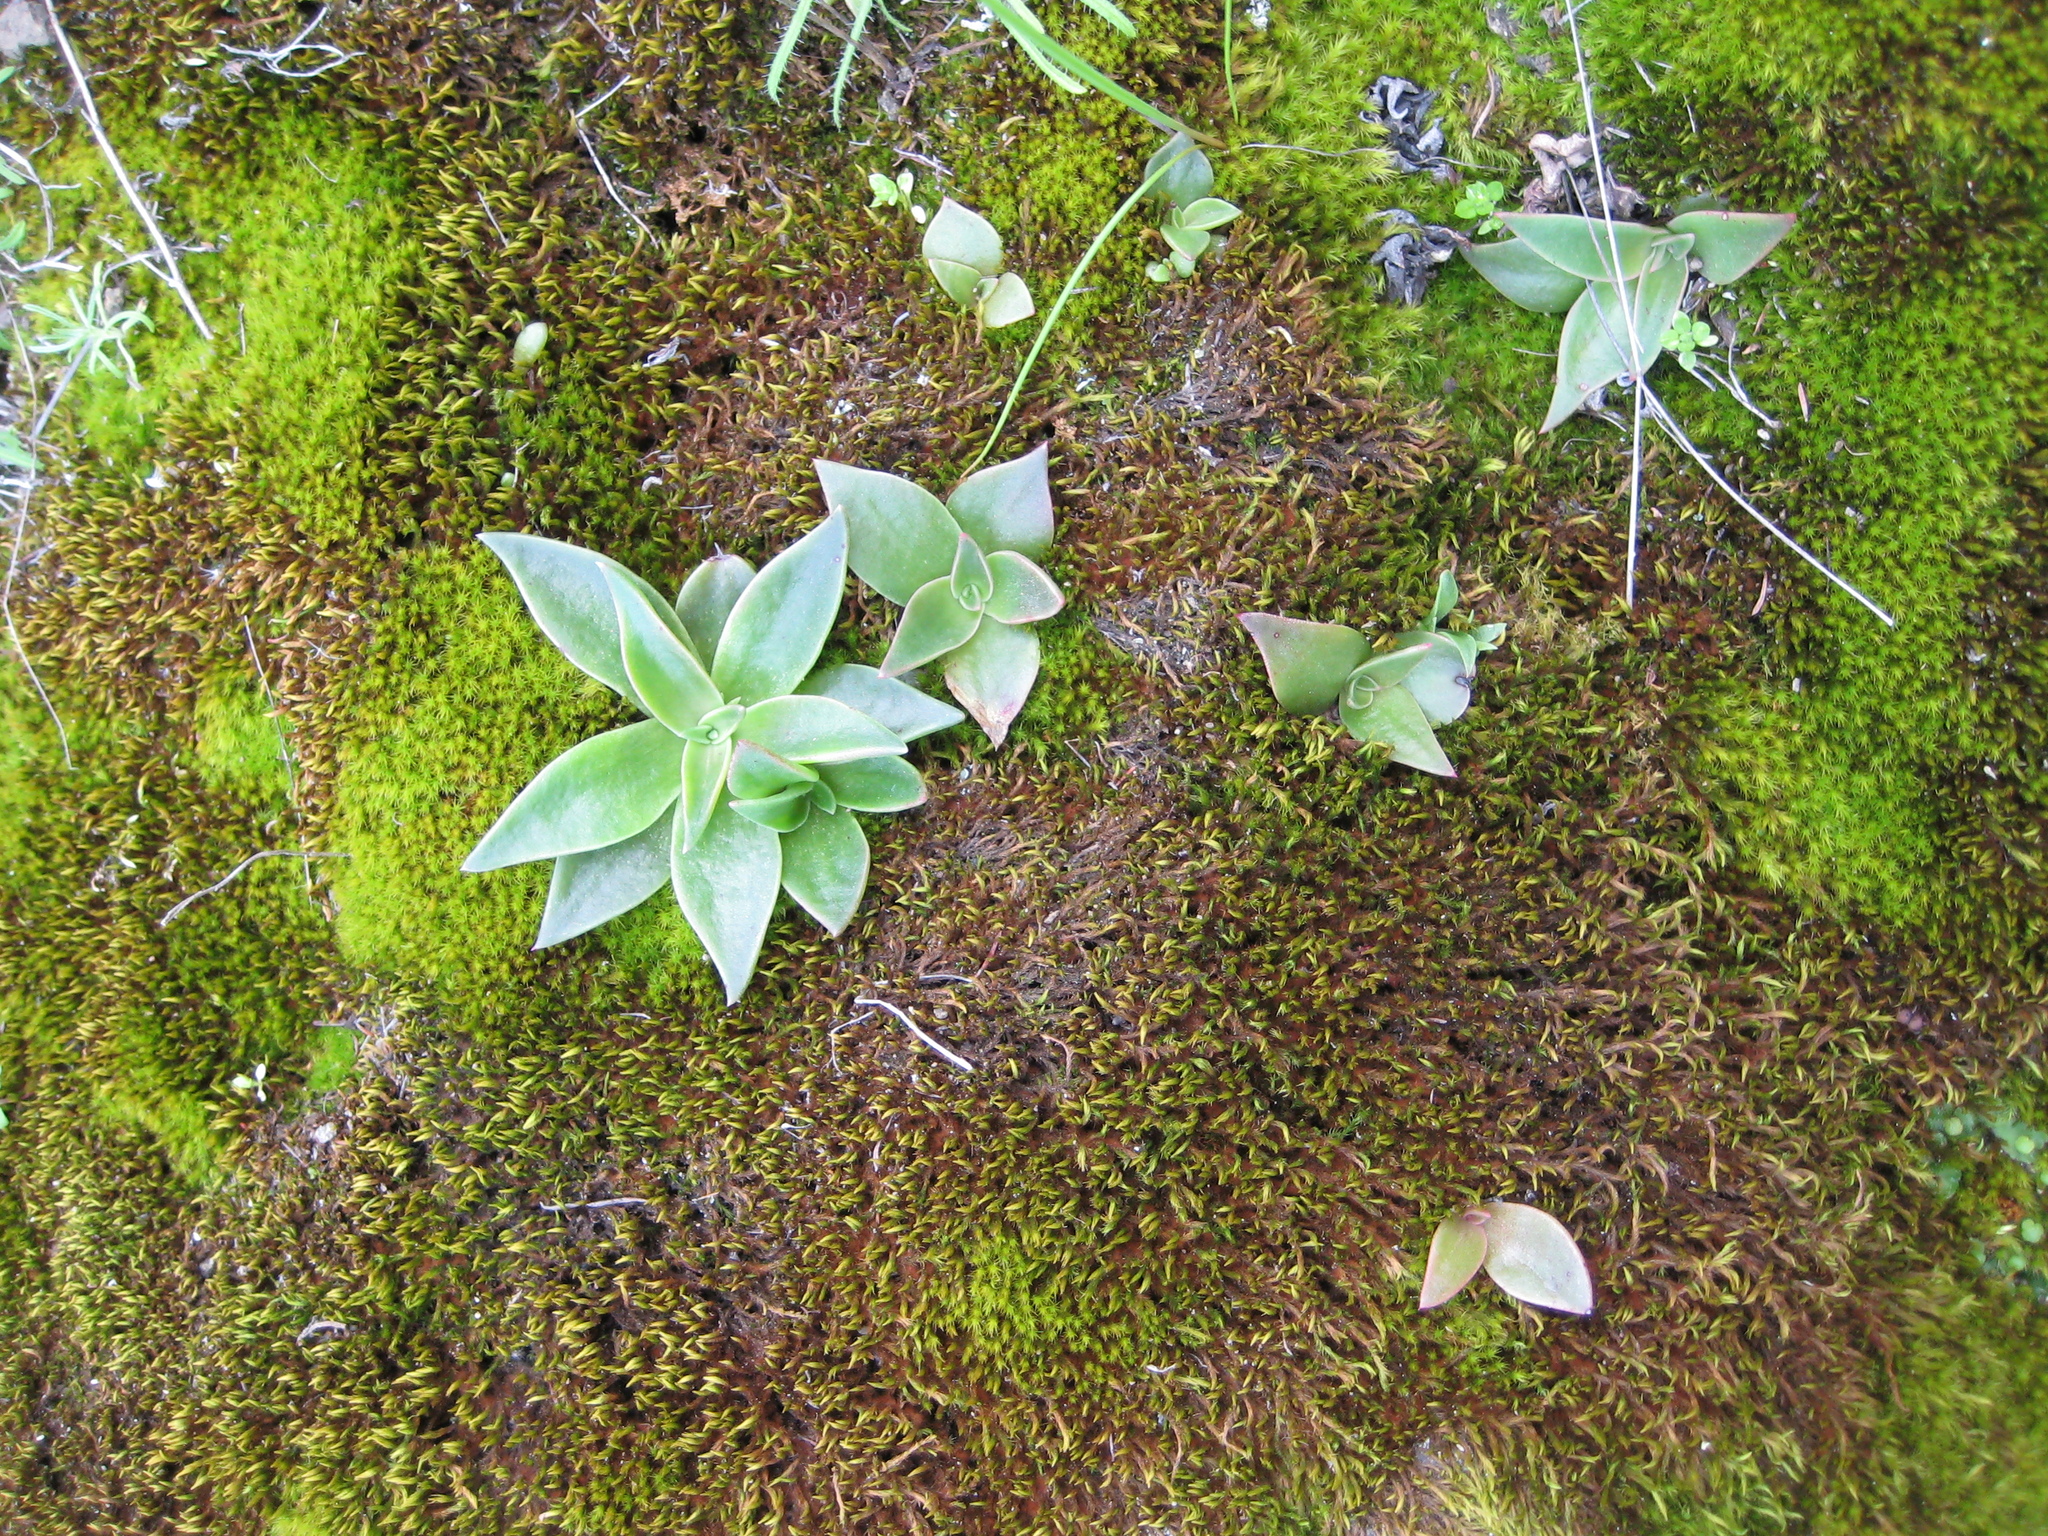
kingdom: Plantae
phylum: Tracheophyta
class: Magnoliopsida
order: Saxifragales
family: Crassulaceae
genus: Dudleya
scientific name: Dudleya cymosa
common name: Canyon dudleya
